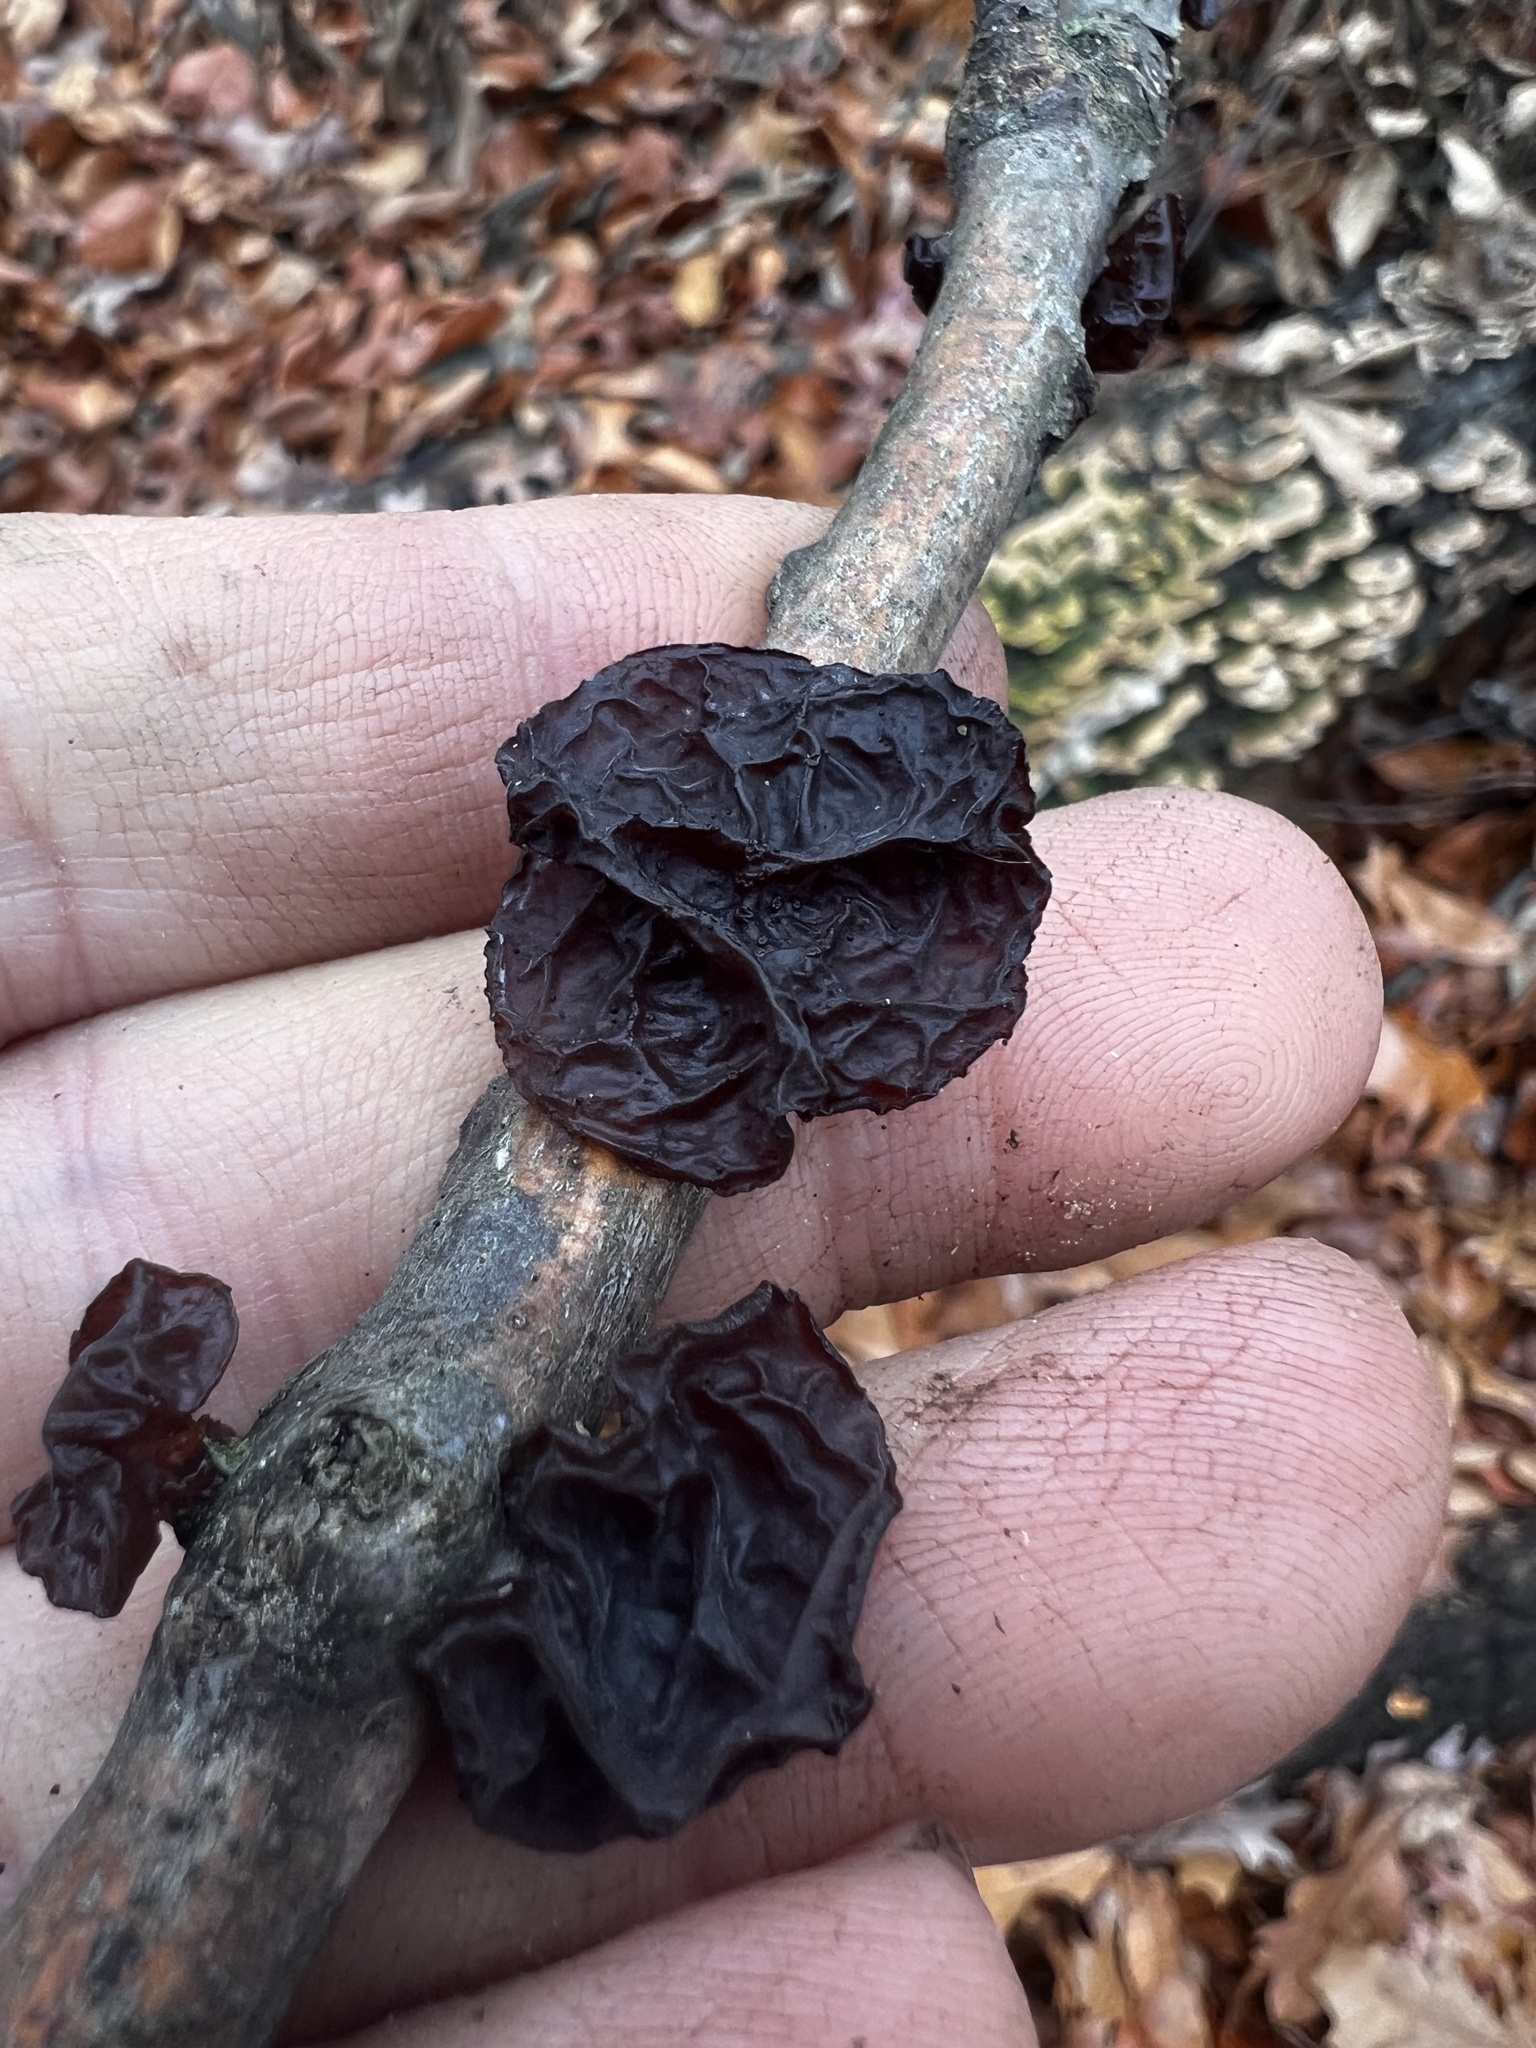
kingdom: Fungi
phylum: Basidiomycota
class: Agaricomycetes
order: Auriculariales
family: Auriculariaceae
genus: Exidia
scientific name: Exidia
